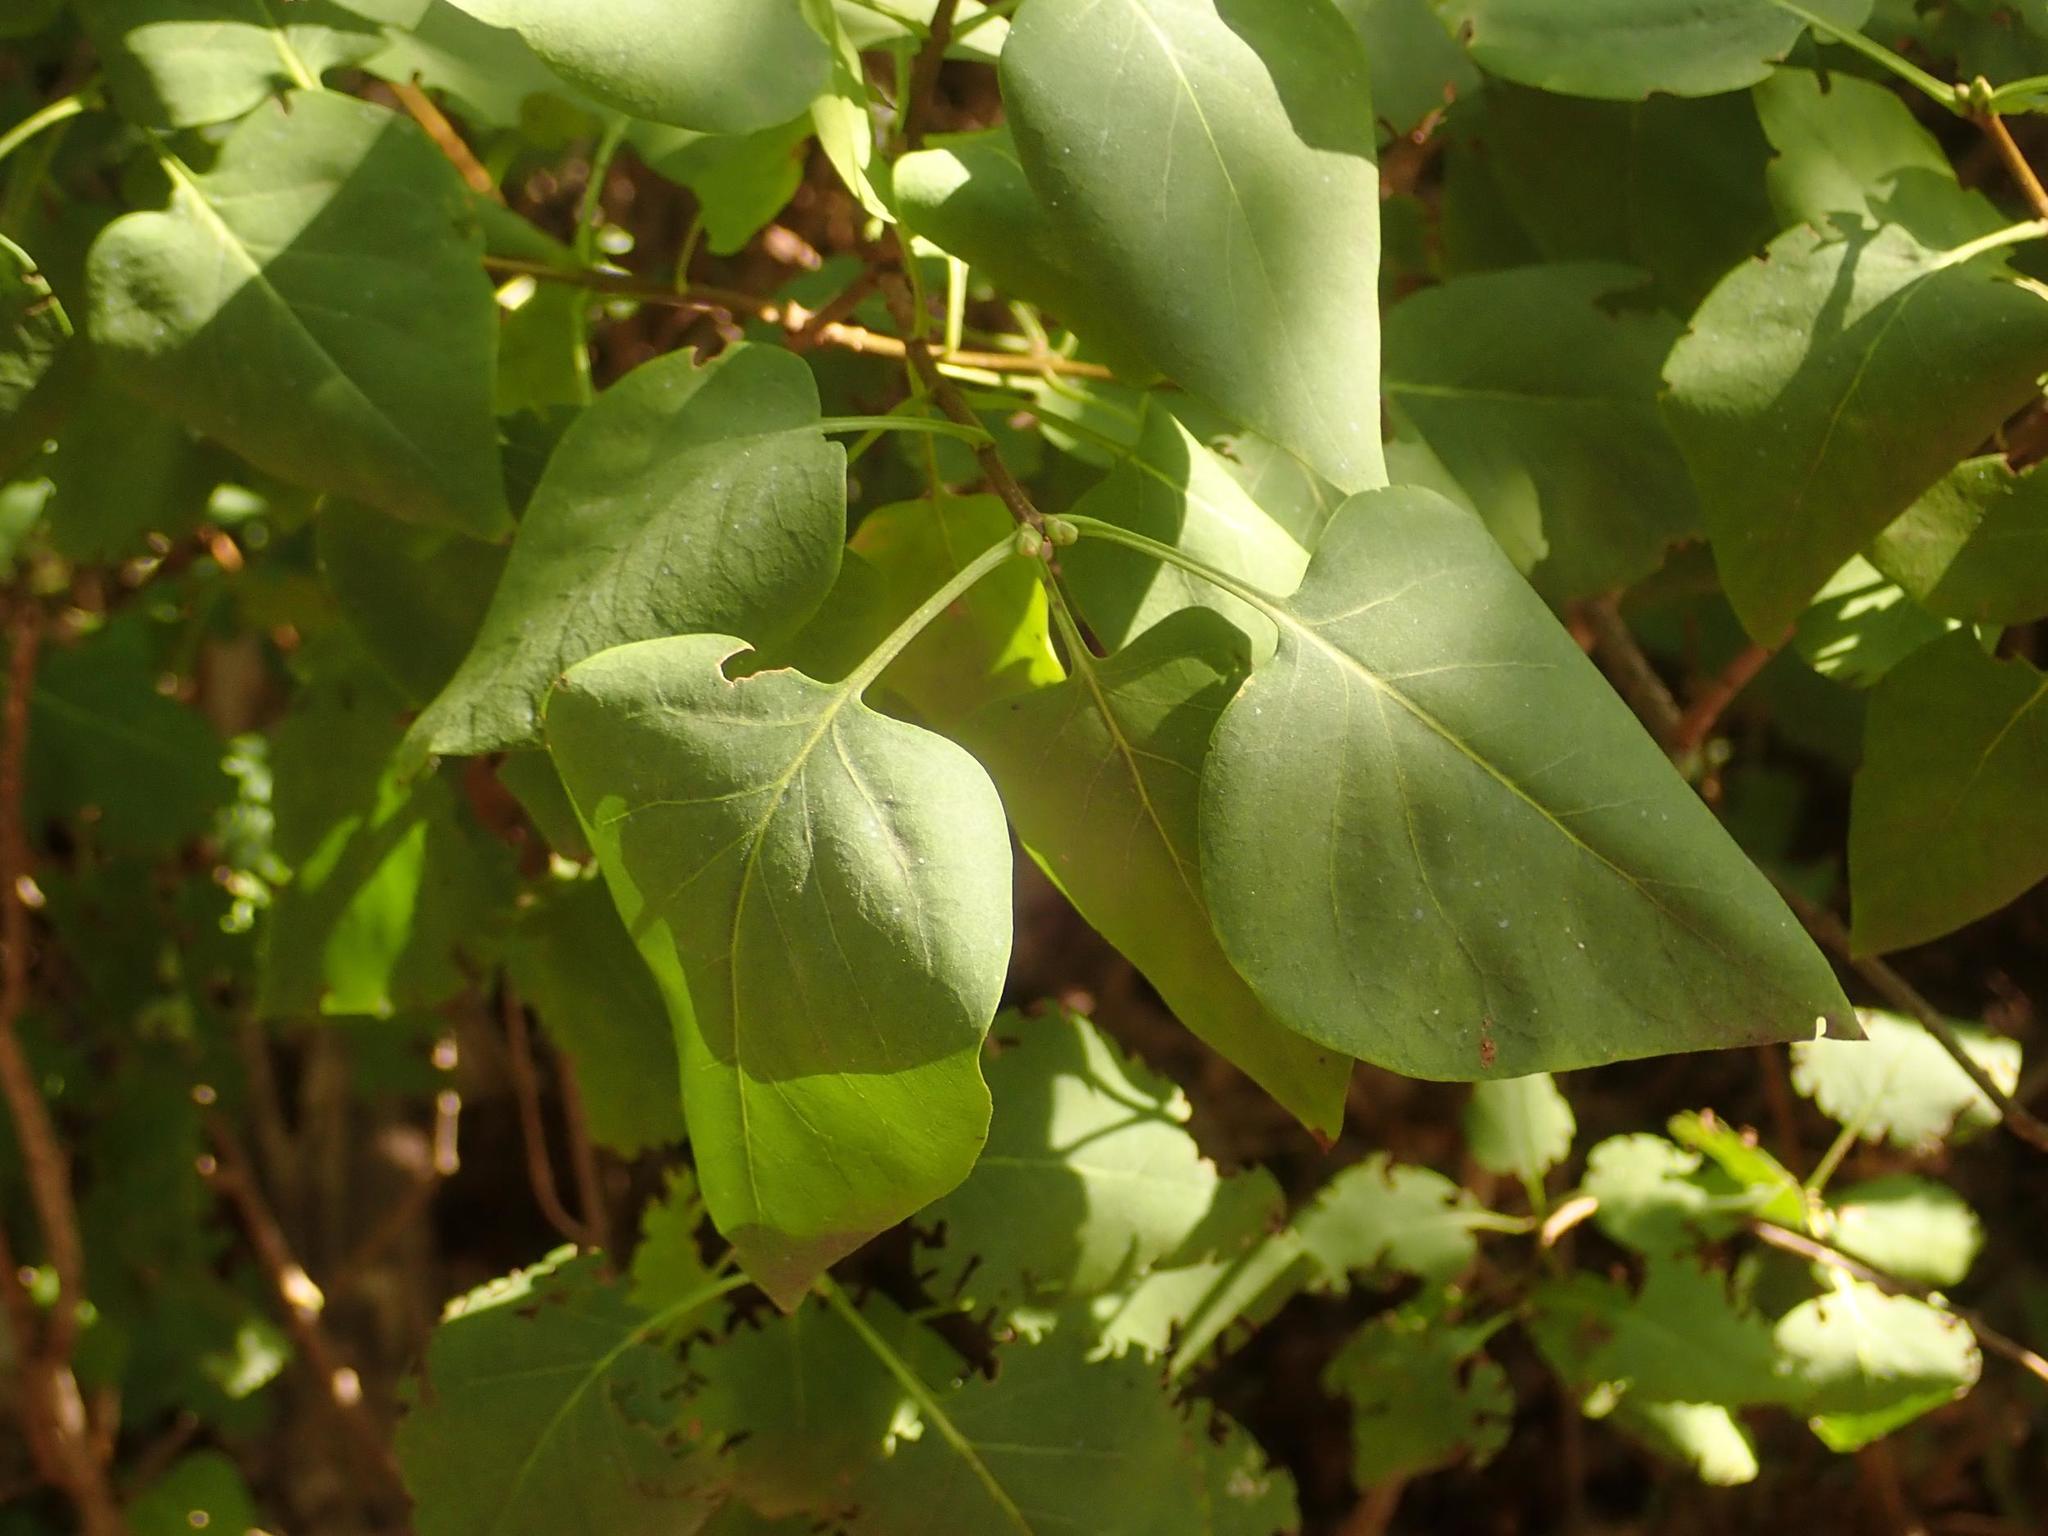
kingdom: Plantae
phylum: Tracheophyta
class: Magnoliopsida
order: Lamiales
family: Oleaceae
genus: Syringa
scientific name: Syringa vulgaris
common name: Common lilac
